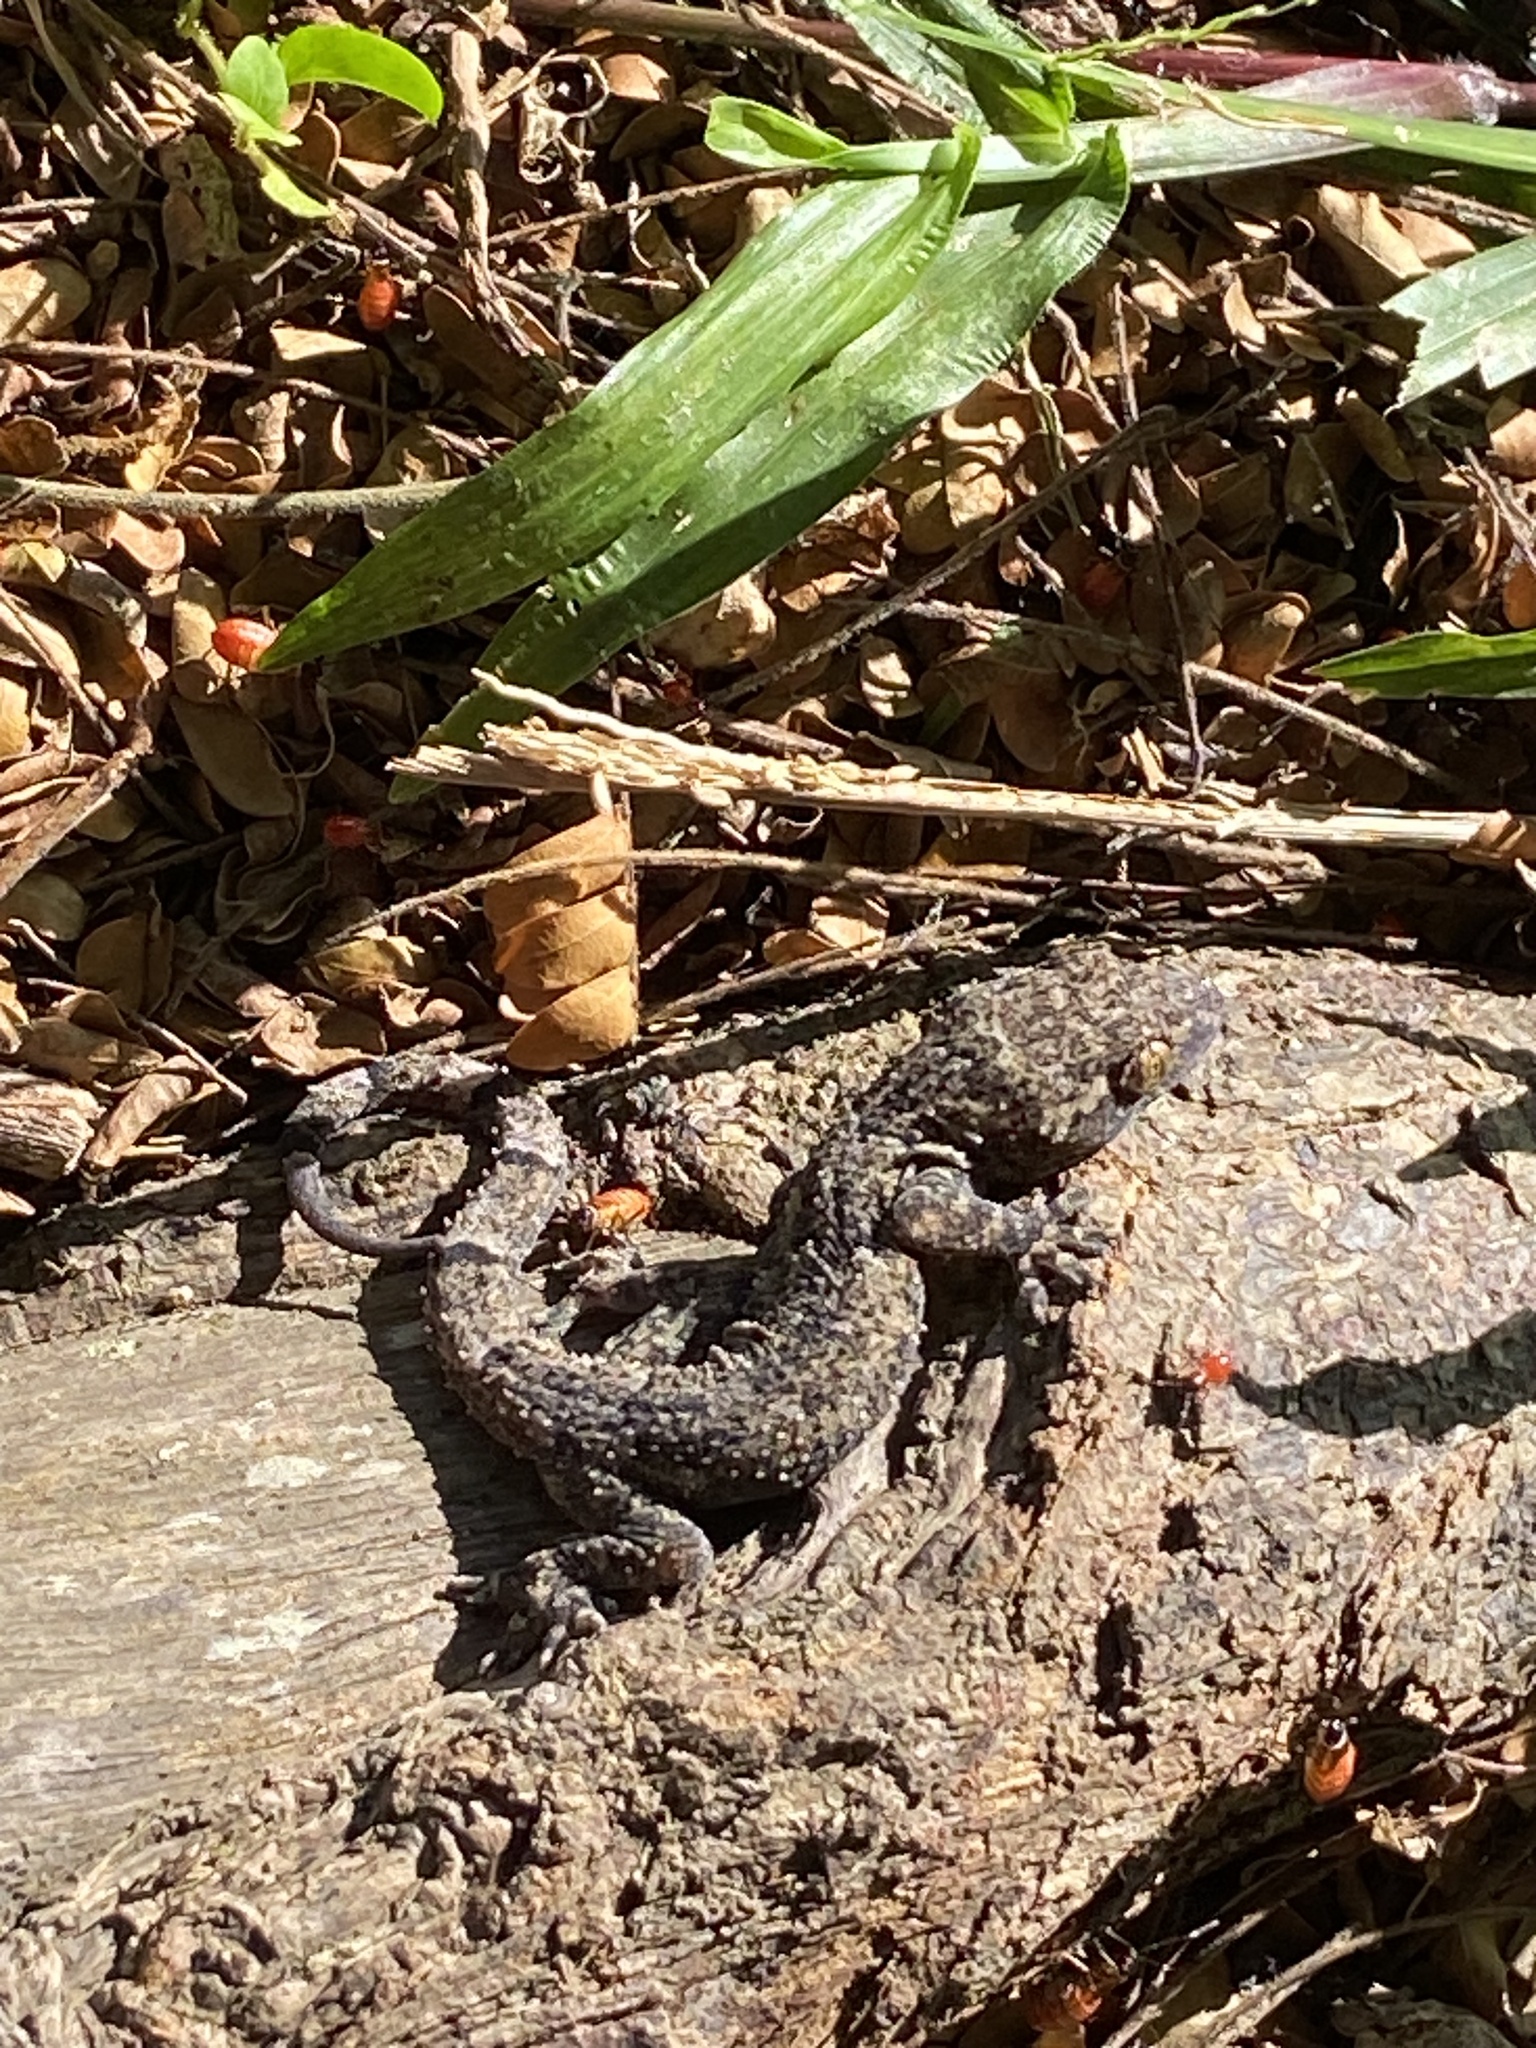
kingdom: Animalia
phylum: Chordata
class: Squamata
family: Gekkonidae
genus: Hemidactylus
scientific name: Hemidactylus mabouia
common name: House gecko
